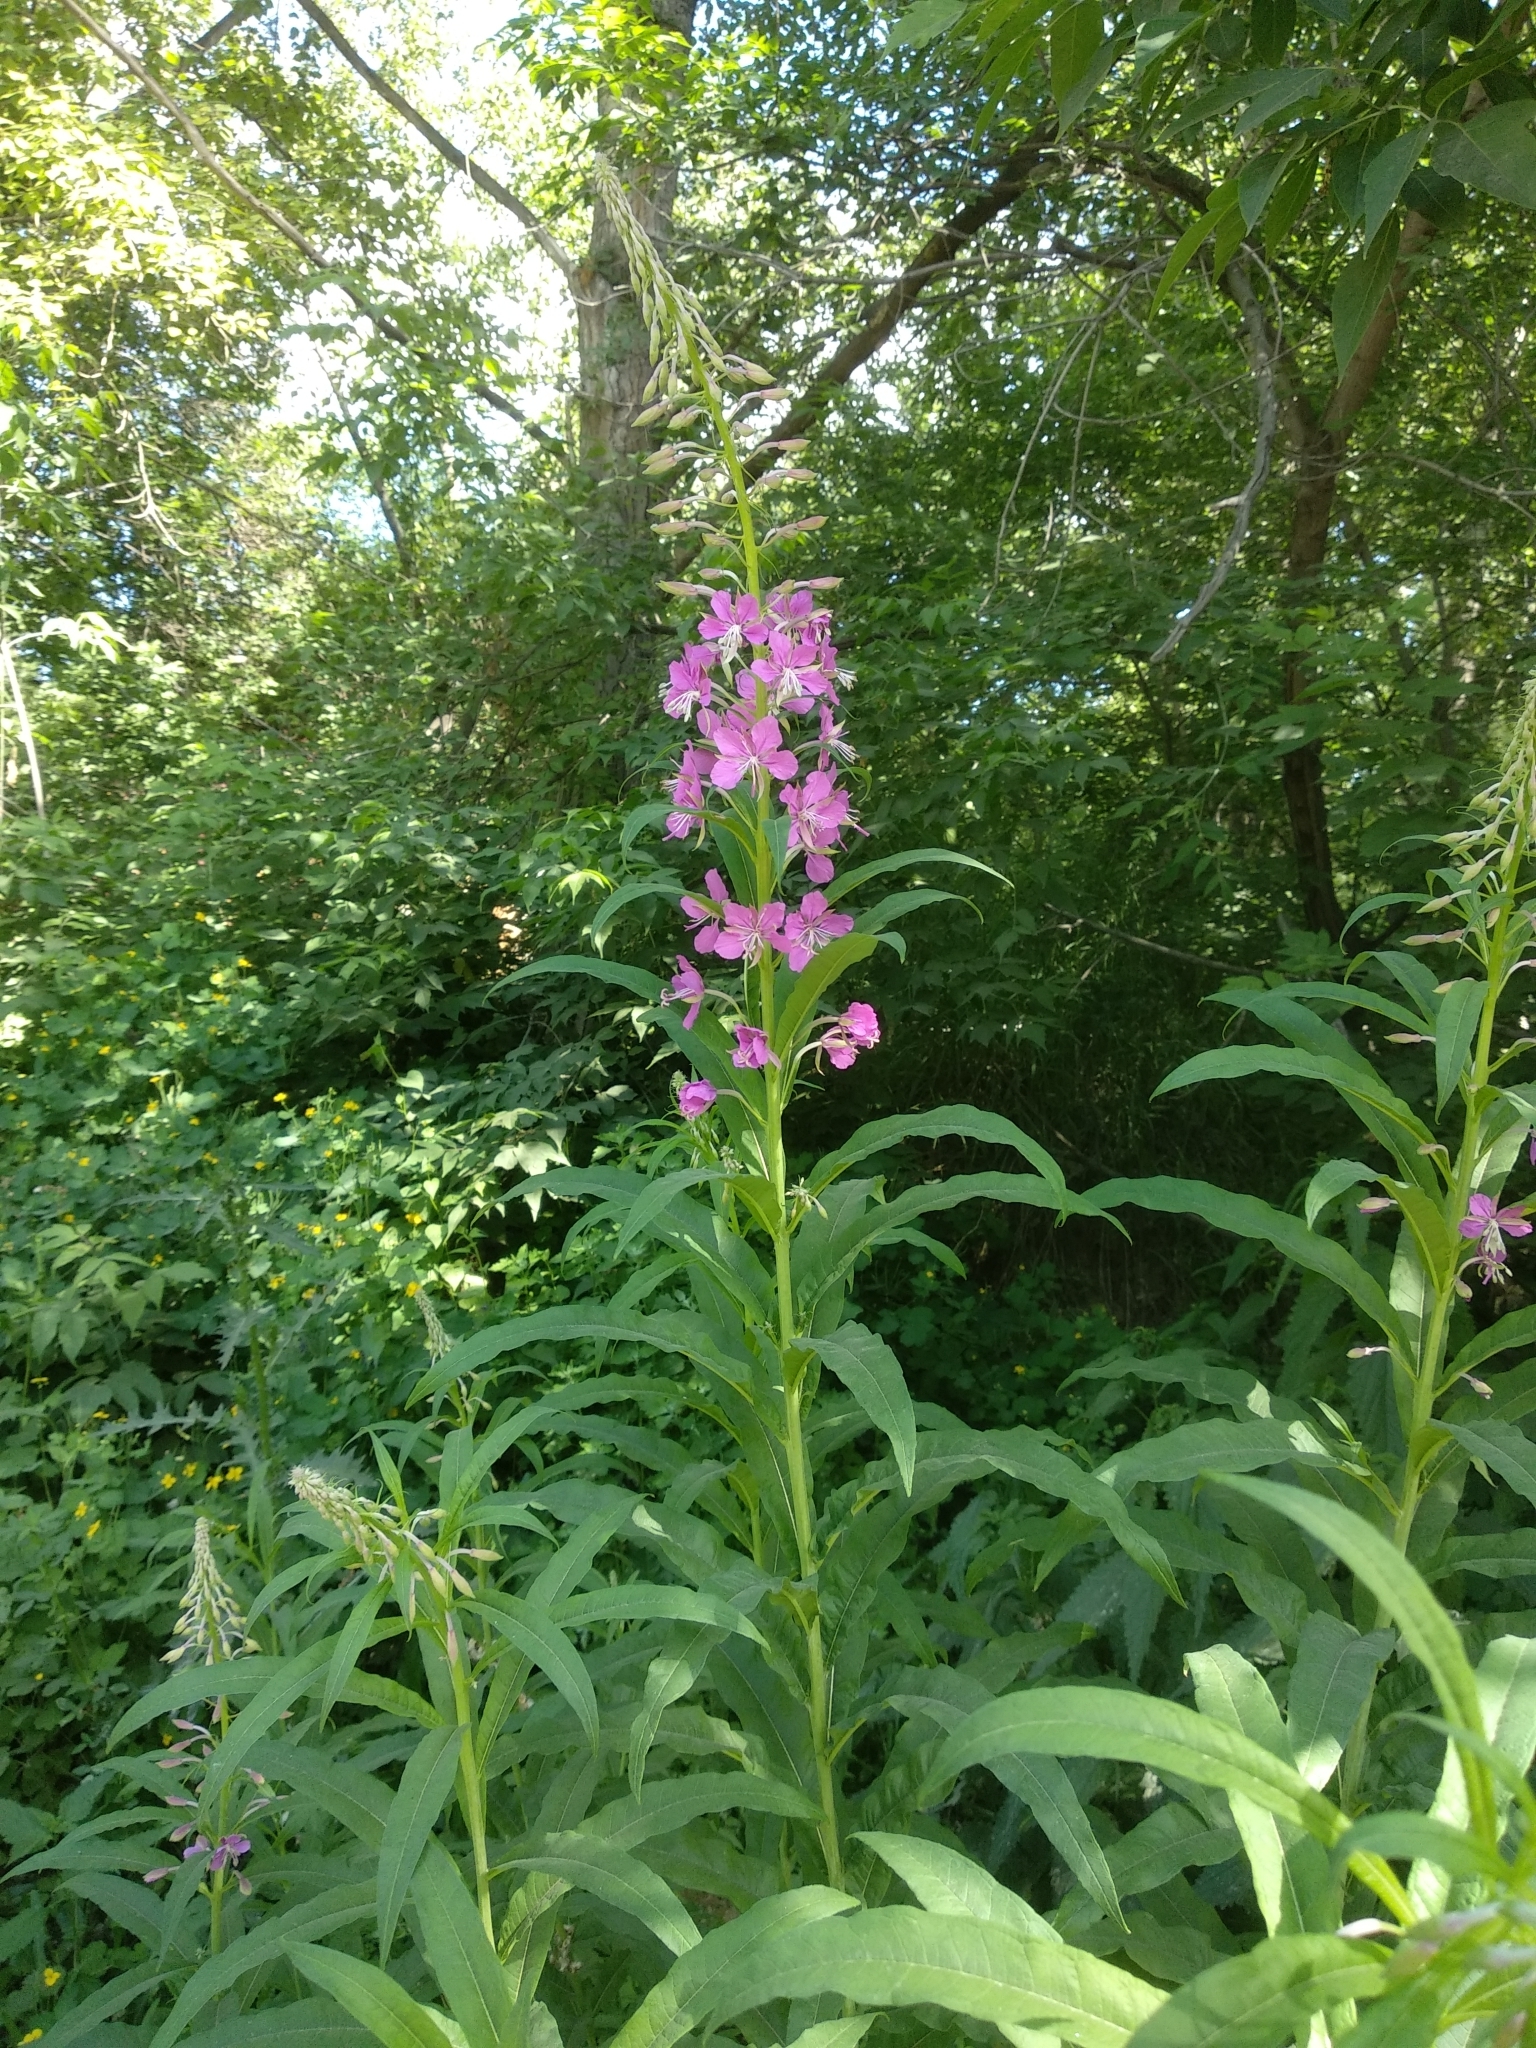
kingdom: Plantae
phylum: Tracheophyta
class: Magnoliopsida
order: Myrtales
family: Onagraceae
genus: Chamaenerion
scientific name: Chamaenerion angustifolium
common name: Fireweed
